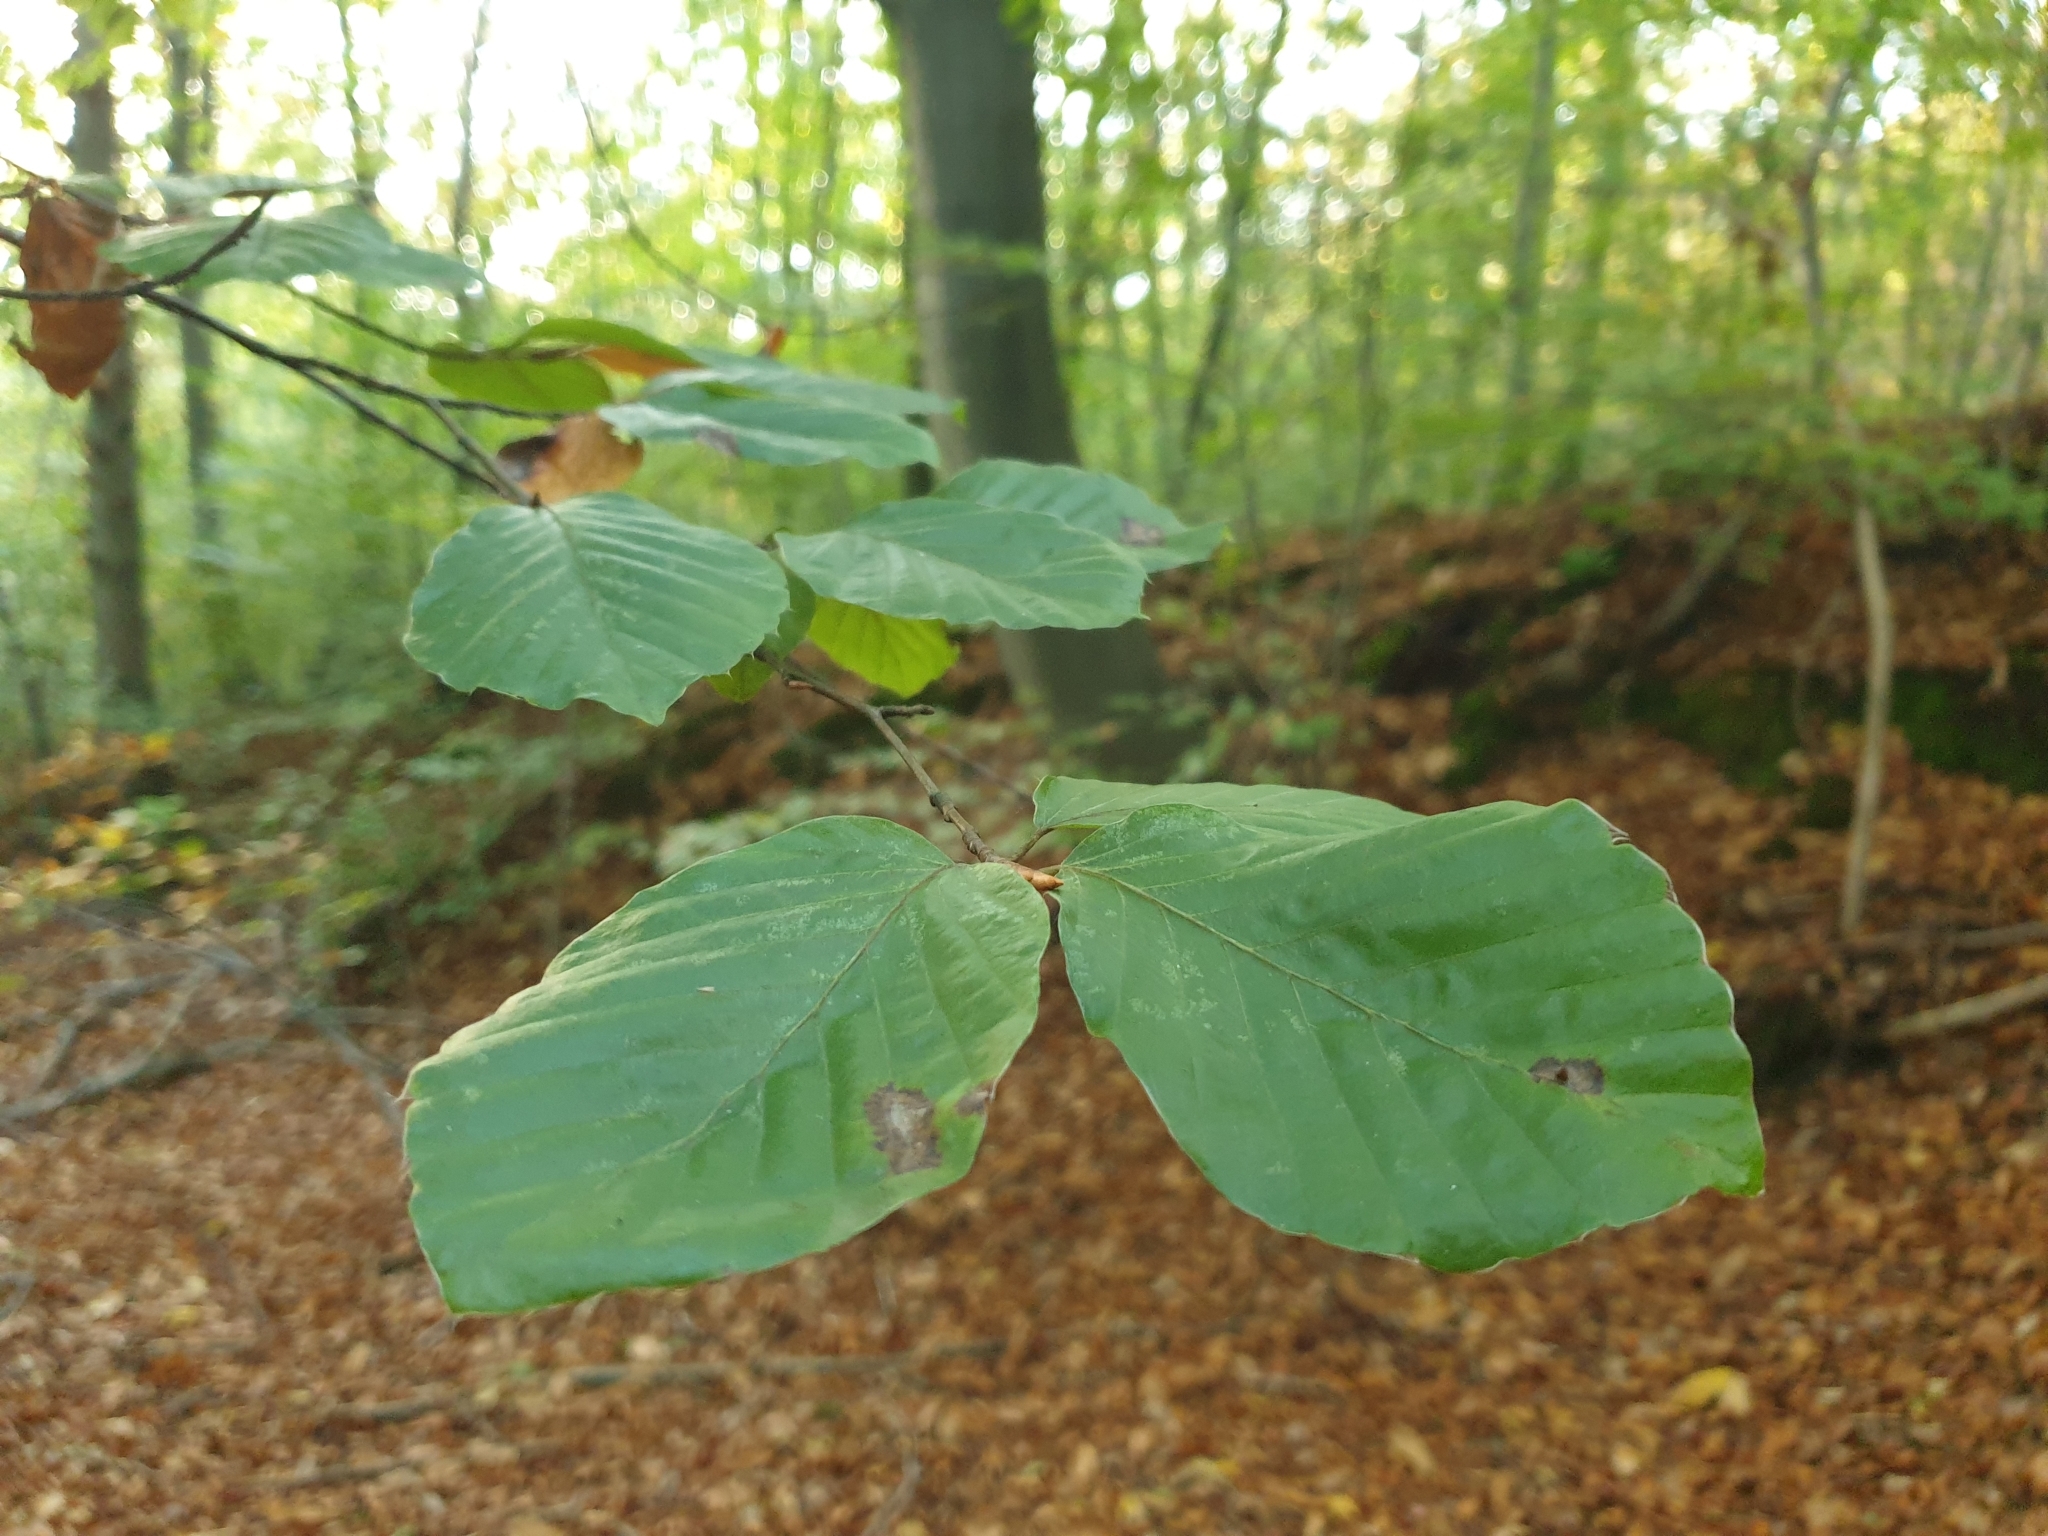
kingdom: Plantae
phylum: Tracheophyta
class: Magnoliopsida
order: Fagales
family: Fagaceae
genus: Fagus
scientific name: Fagus sylvatica
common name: Beech
